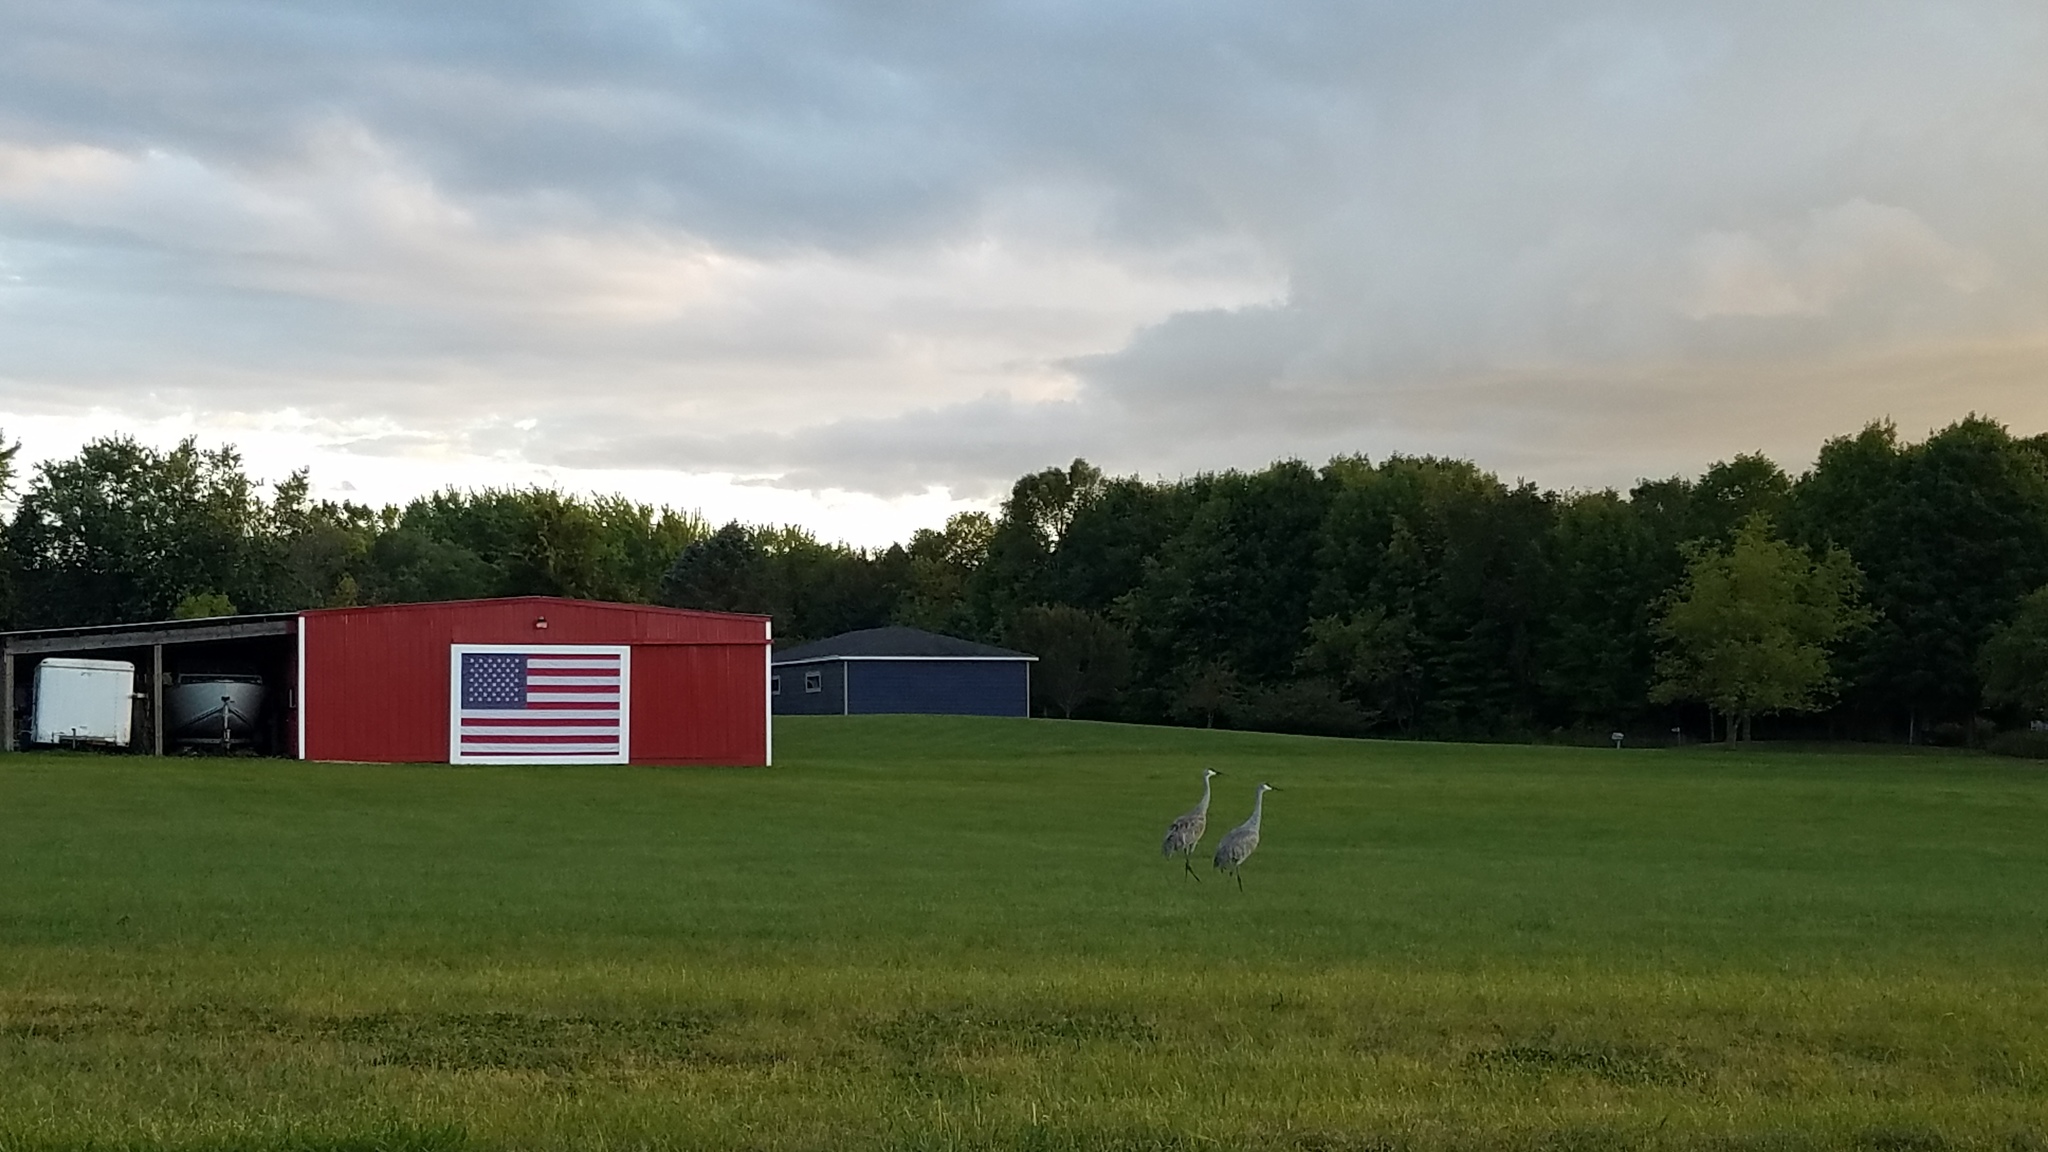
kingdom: Animalia
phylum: Chordata
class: Aves
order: Gruiformes
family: Gruidae
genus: Grus
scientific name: Grus canadensis
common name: Sandhill crane
